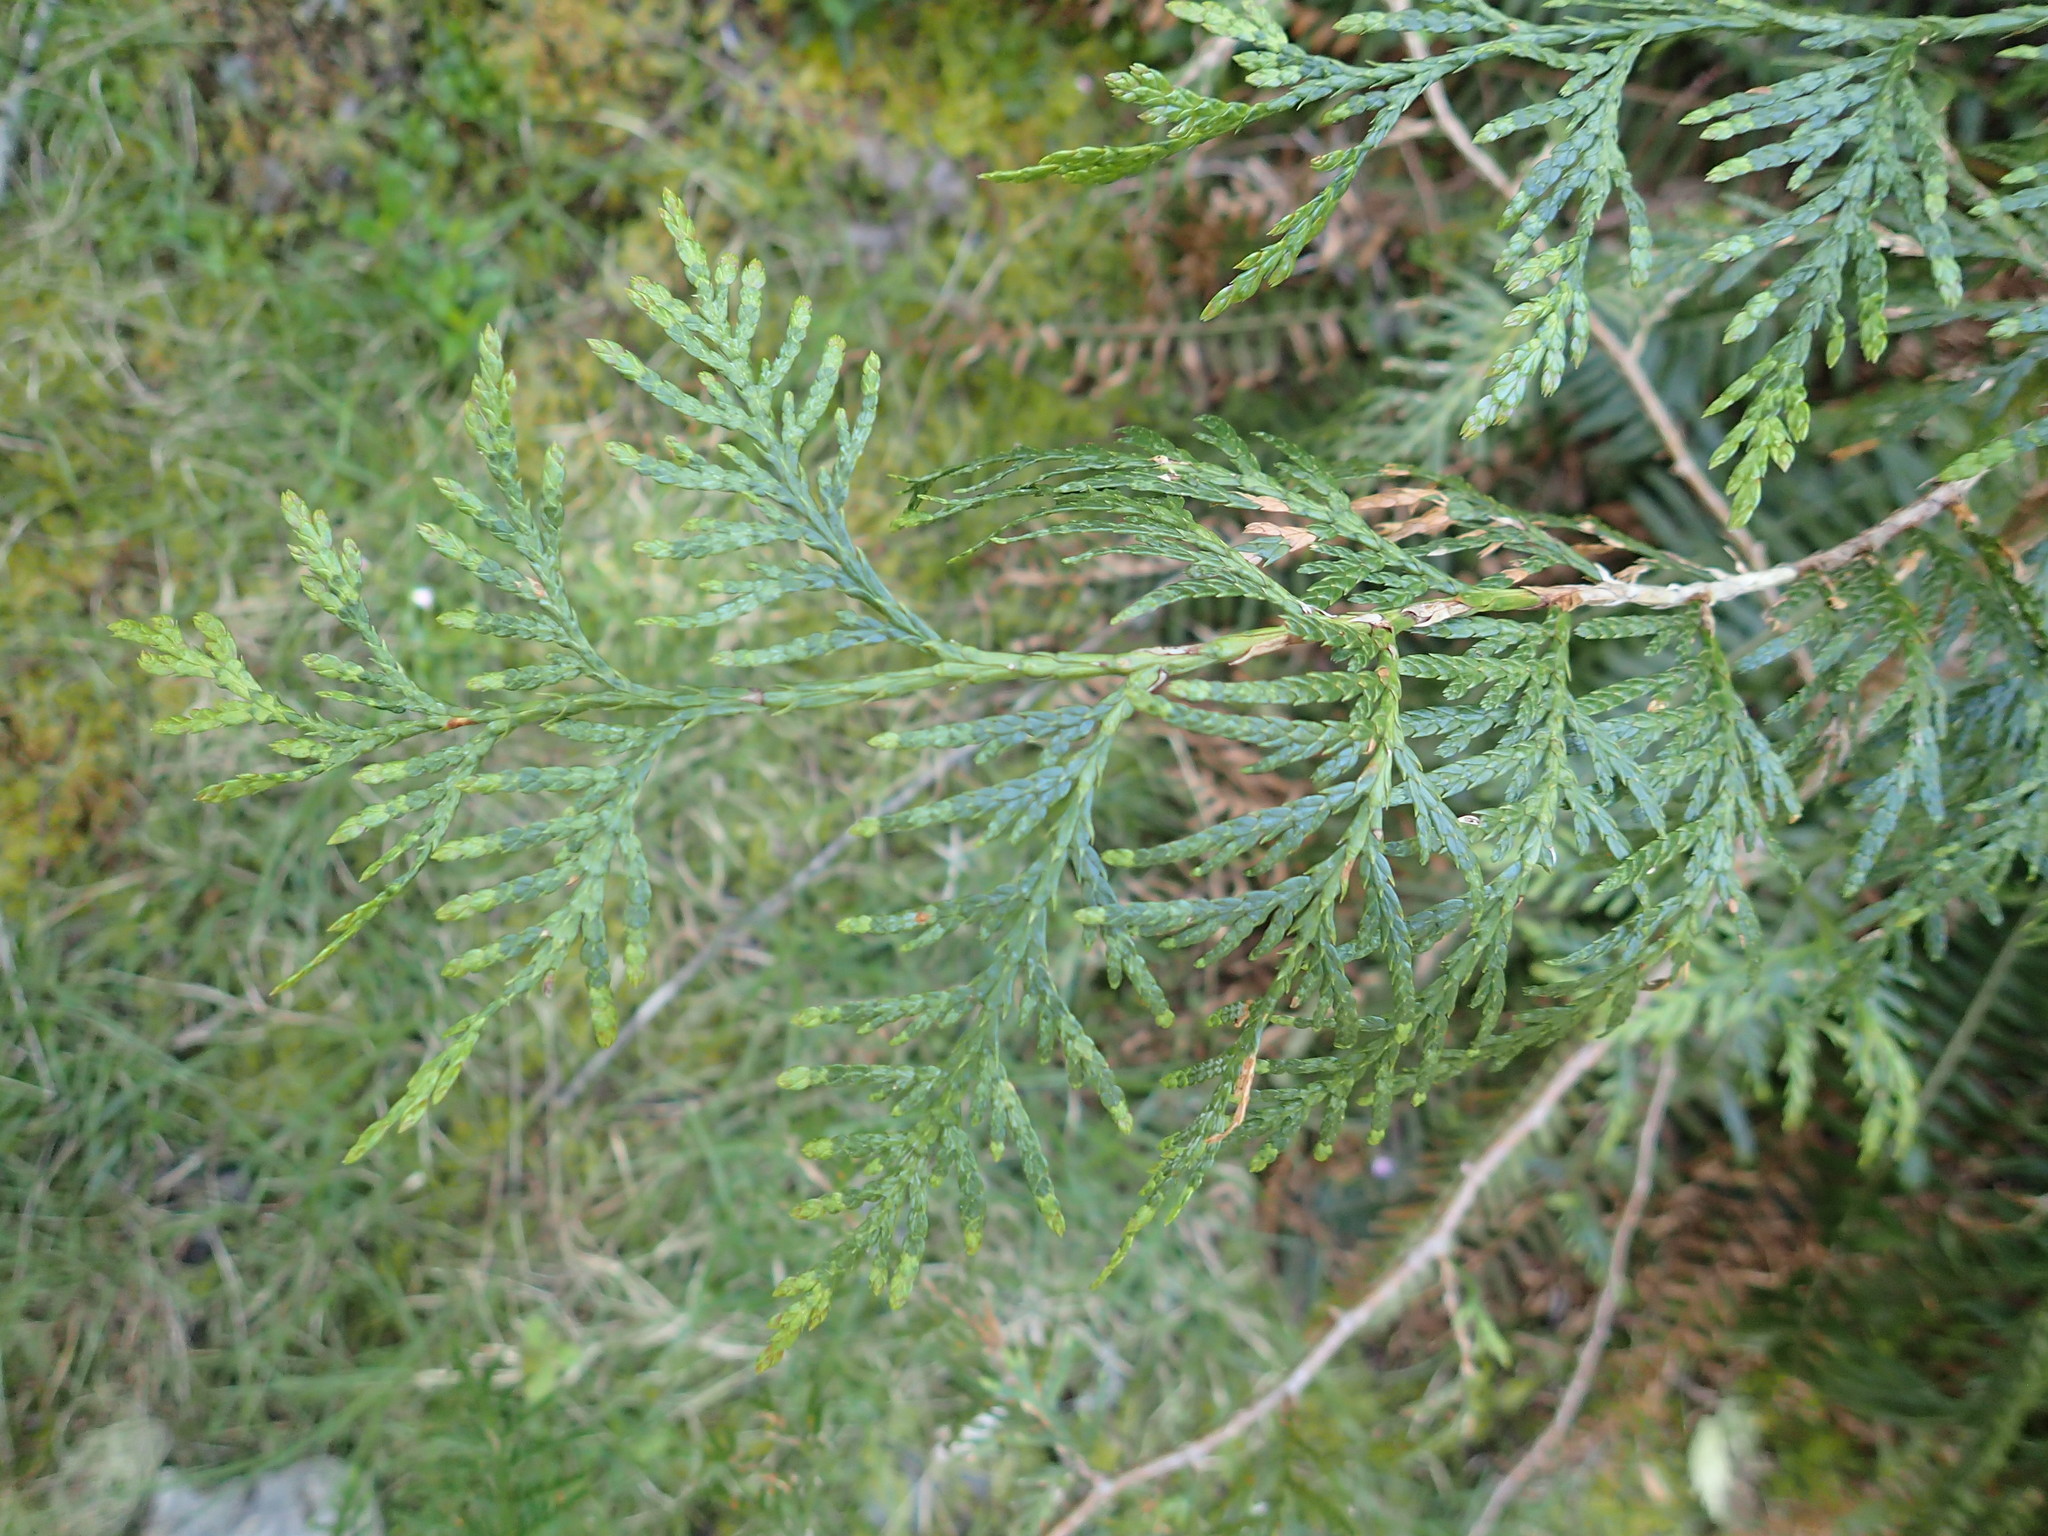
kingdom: Plantae
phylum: Tracheophyta
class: Pinopsida
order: Pinales
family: Cupressaceae
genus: Thuja
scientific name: Thuja plicata
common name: Western red-cedar
